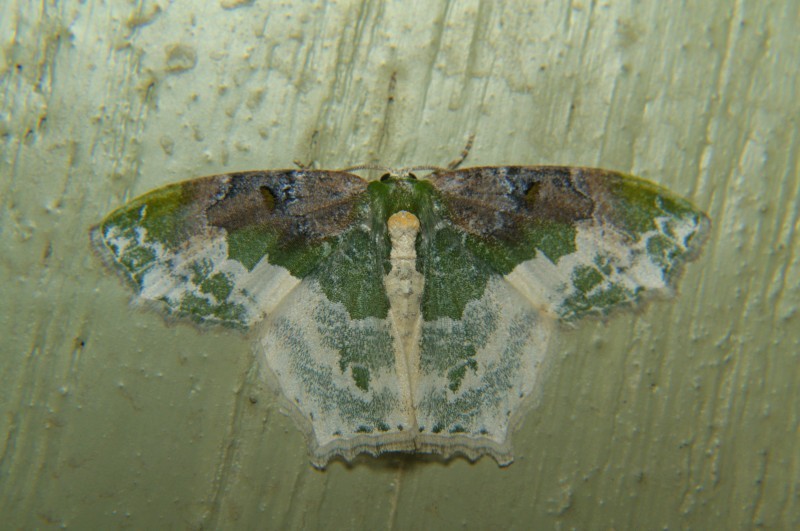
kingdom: Animalia
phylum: Arthropoda
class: Insecta
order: Lepidoptera
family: Geometridae
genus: Eucyclodes
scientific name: Eucyclodes semialba
